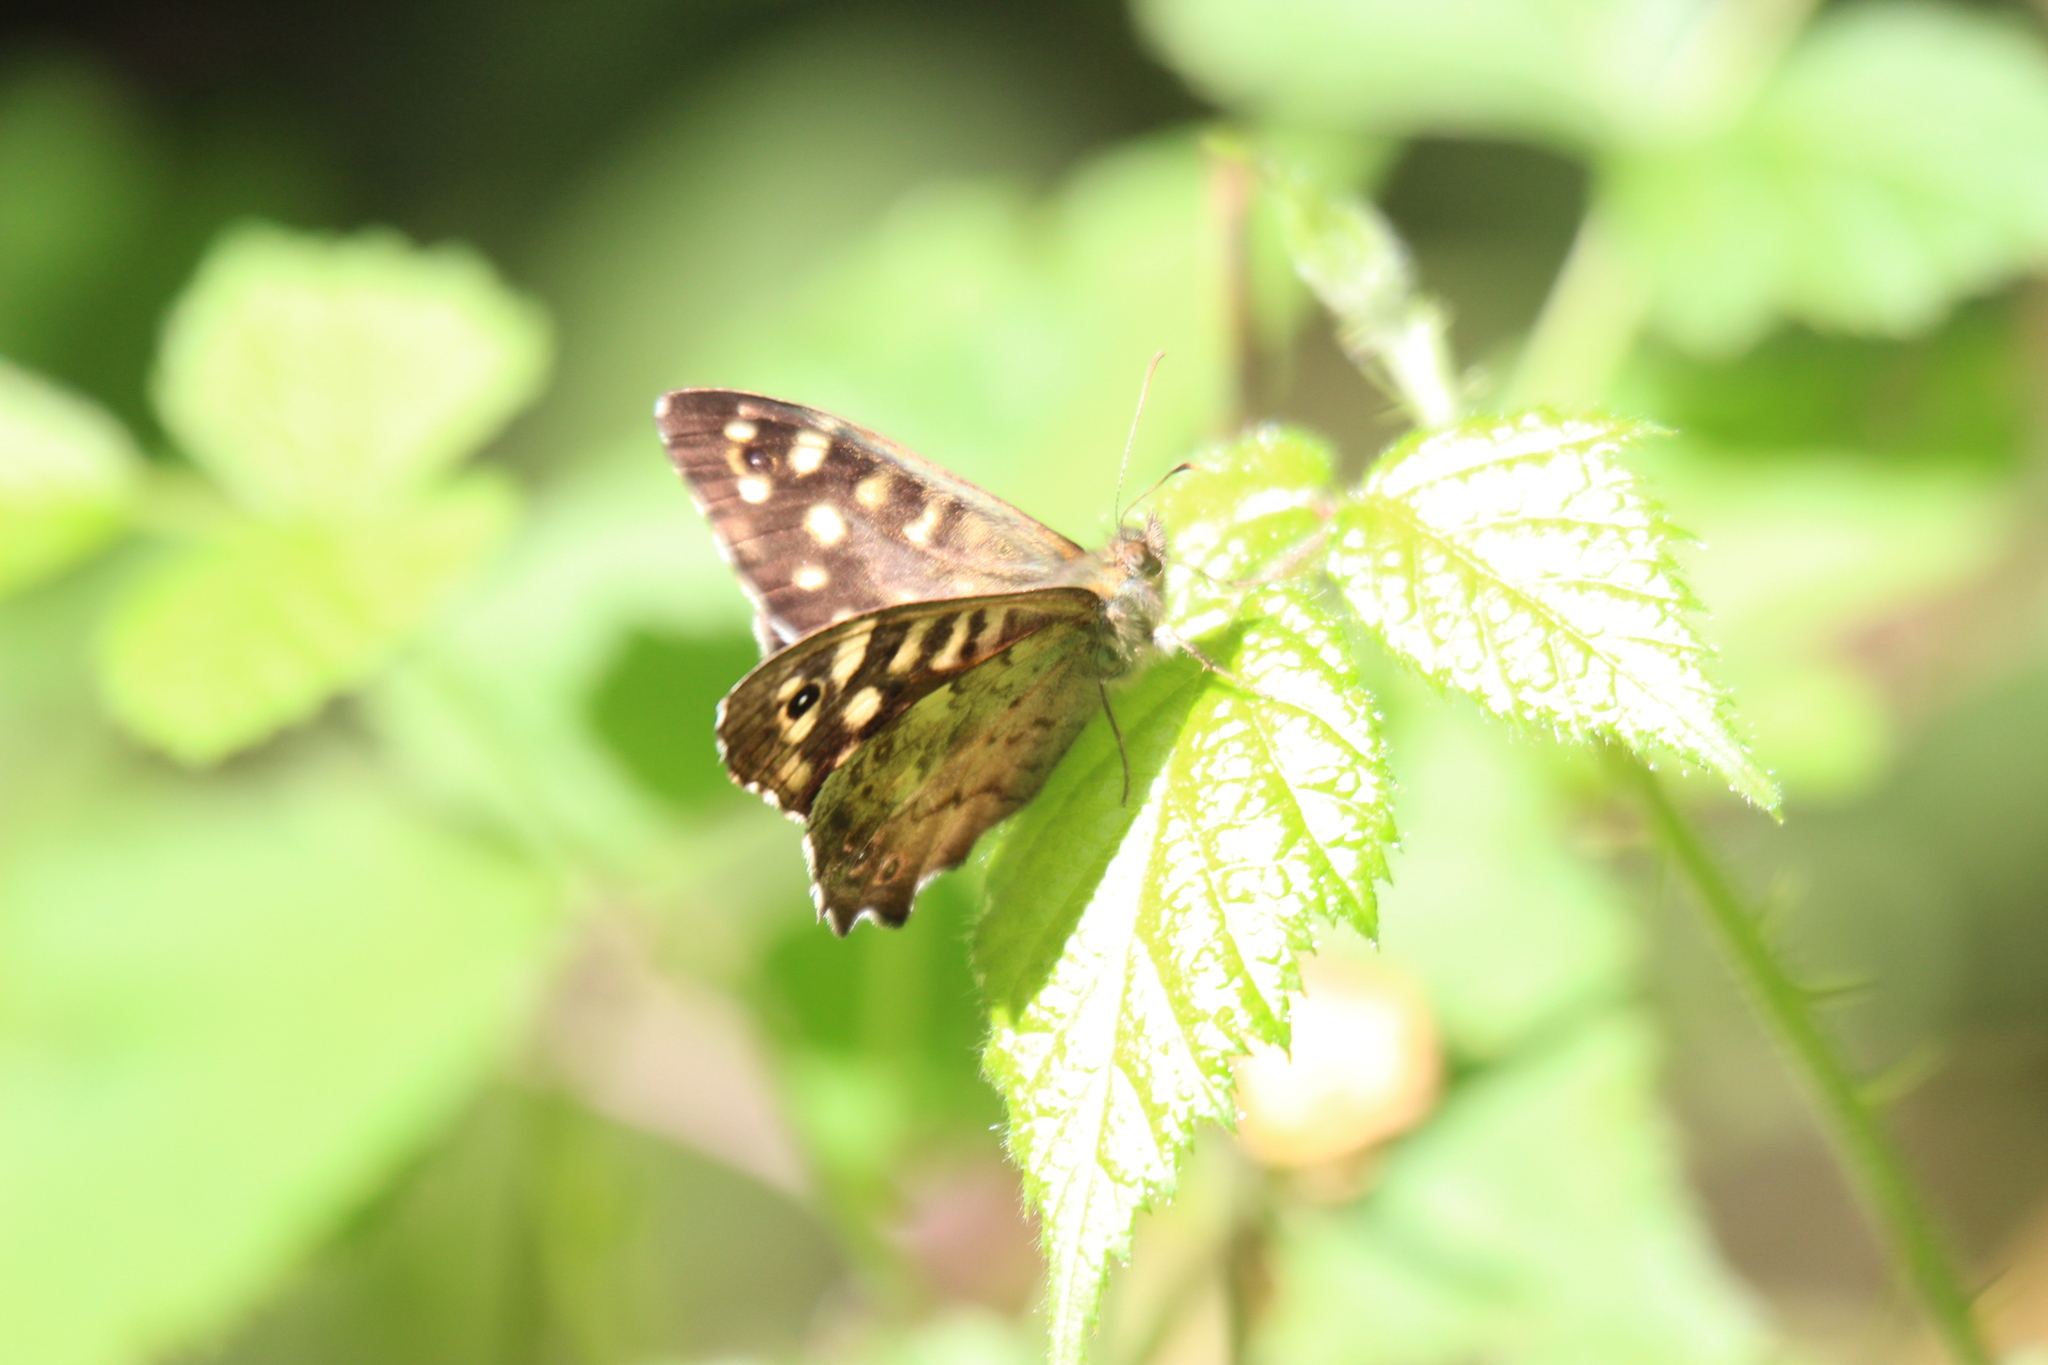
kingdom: Animalia
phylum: Arthropoda
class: Insecta
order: Lepidoptera
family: Nymphalidae
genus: Pararge
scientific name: Pararge aegeria
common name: Speckled wood
